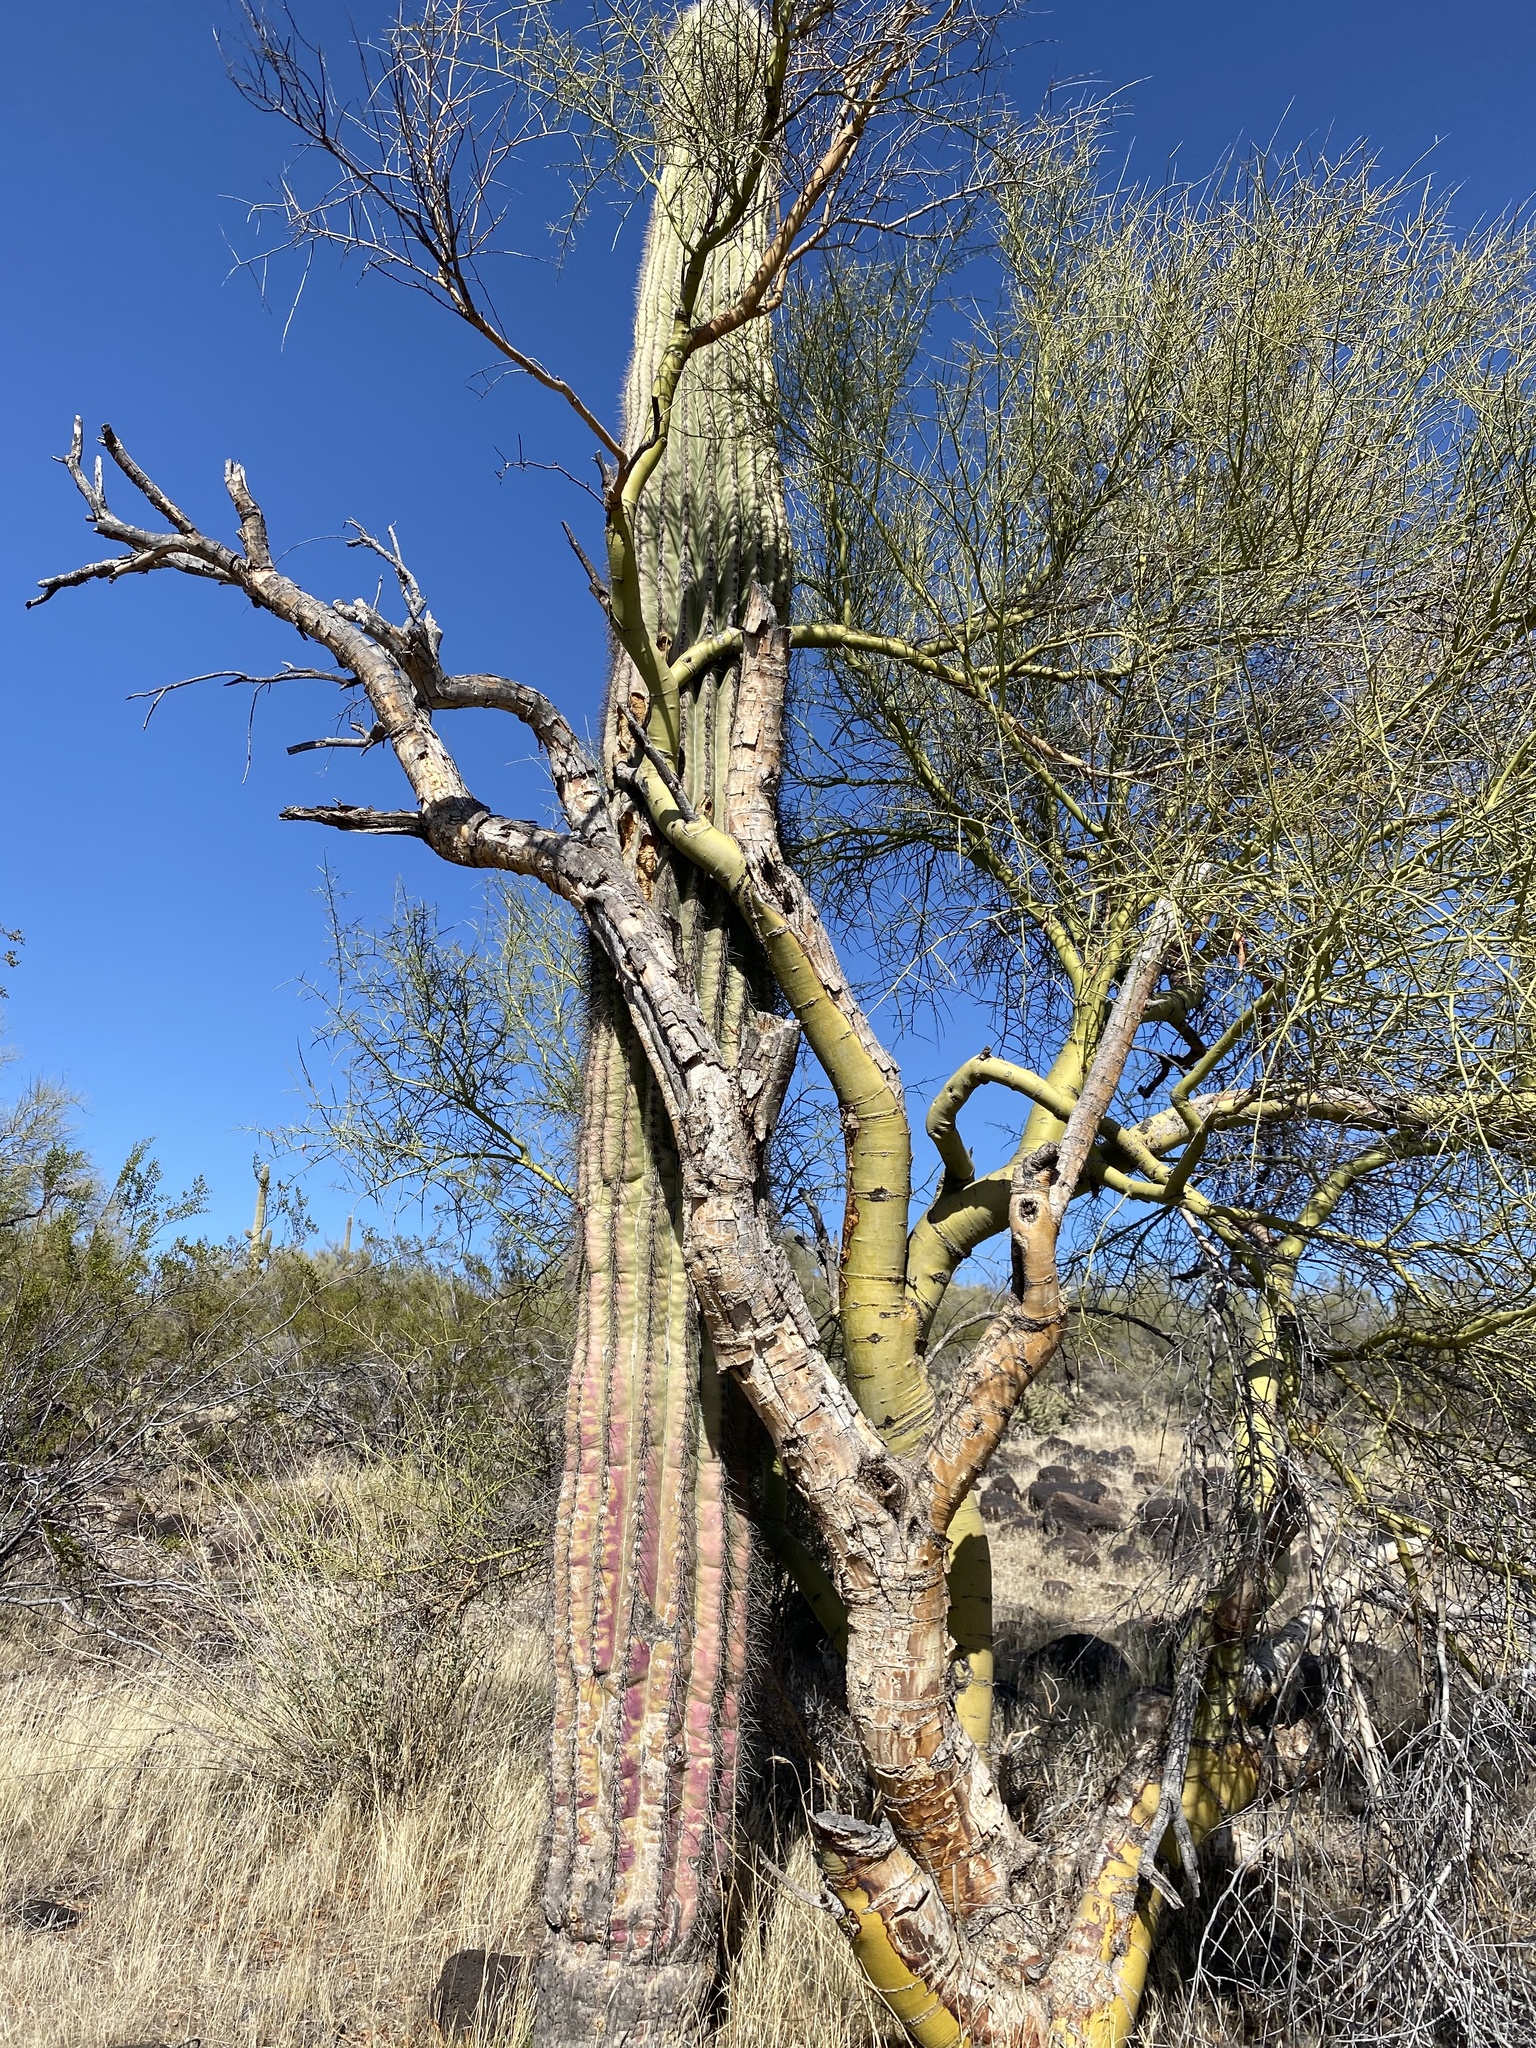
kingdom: Plantae
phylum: Tracheophyta
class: Magnoliopsida
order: Fabales
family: Fabaceae
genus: Parkinsonia
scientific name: Parkinsonia microphylla
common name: Yellow paloverde
